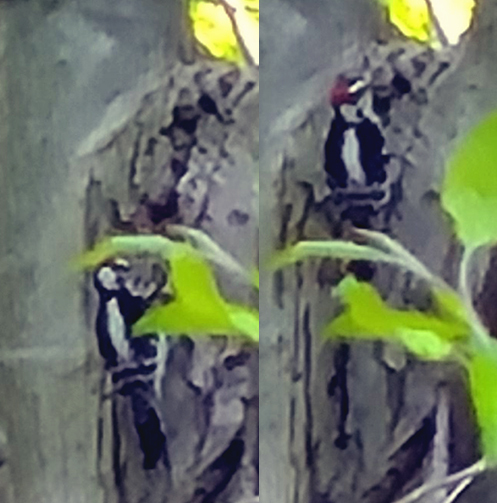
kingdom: Animalia
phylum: Chordata
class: Aves
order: Piciformes
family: Picidae
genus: Dryobates
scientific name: Dryobates
